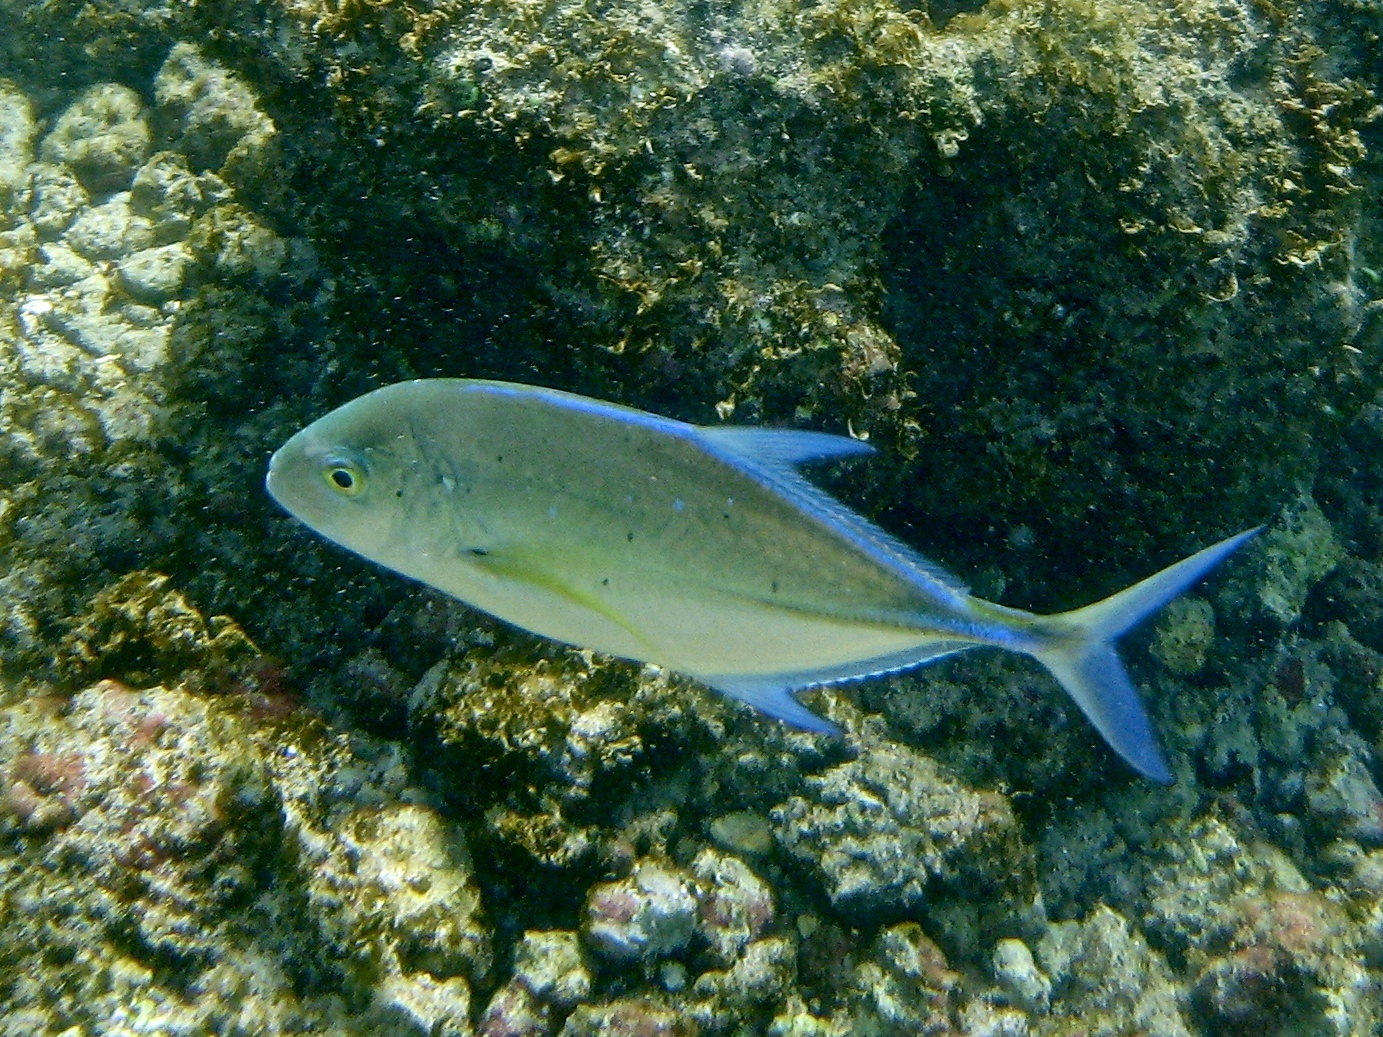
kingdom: Animalia
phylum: Chordata
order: Perciformes
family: Carangidae
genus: Caranx
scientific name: Caranx melampygus
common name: Bluefin trevally
